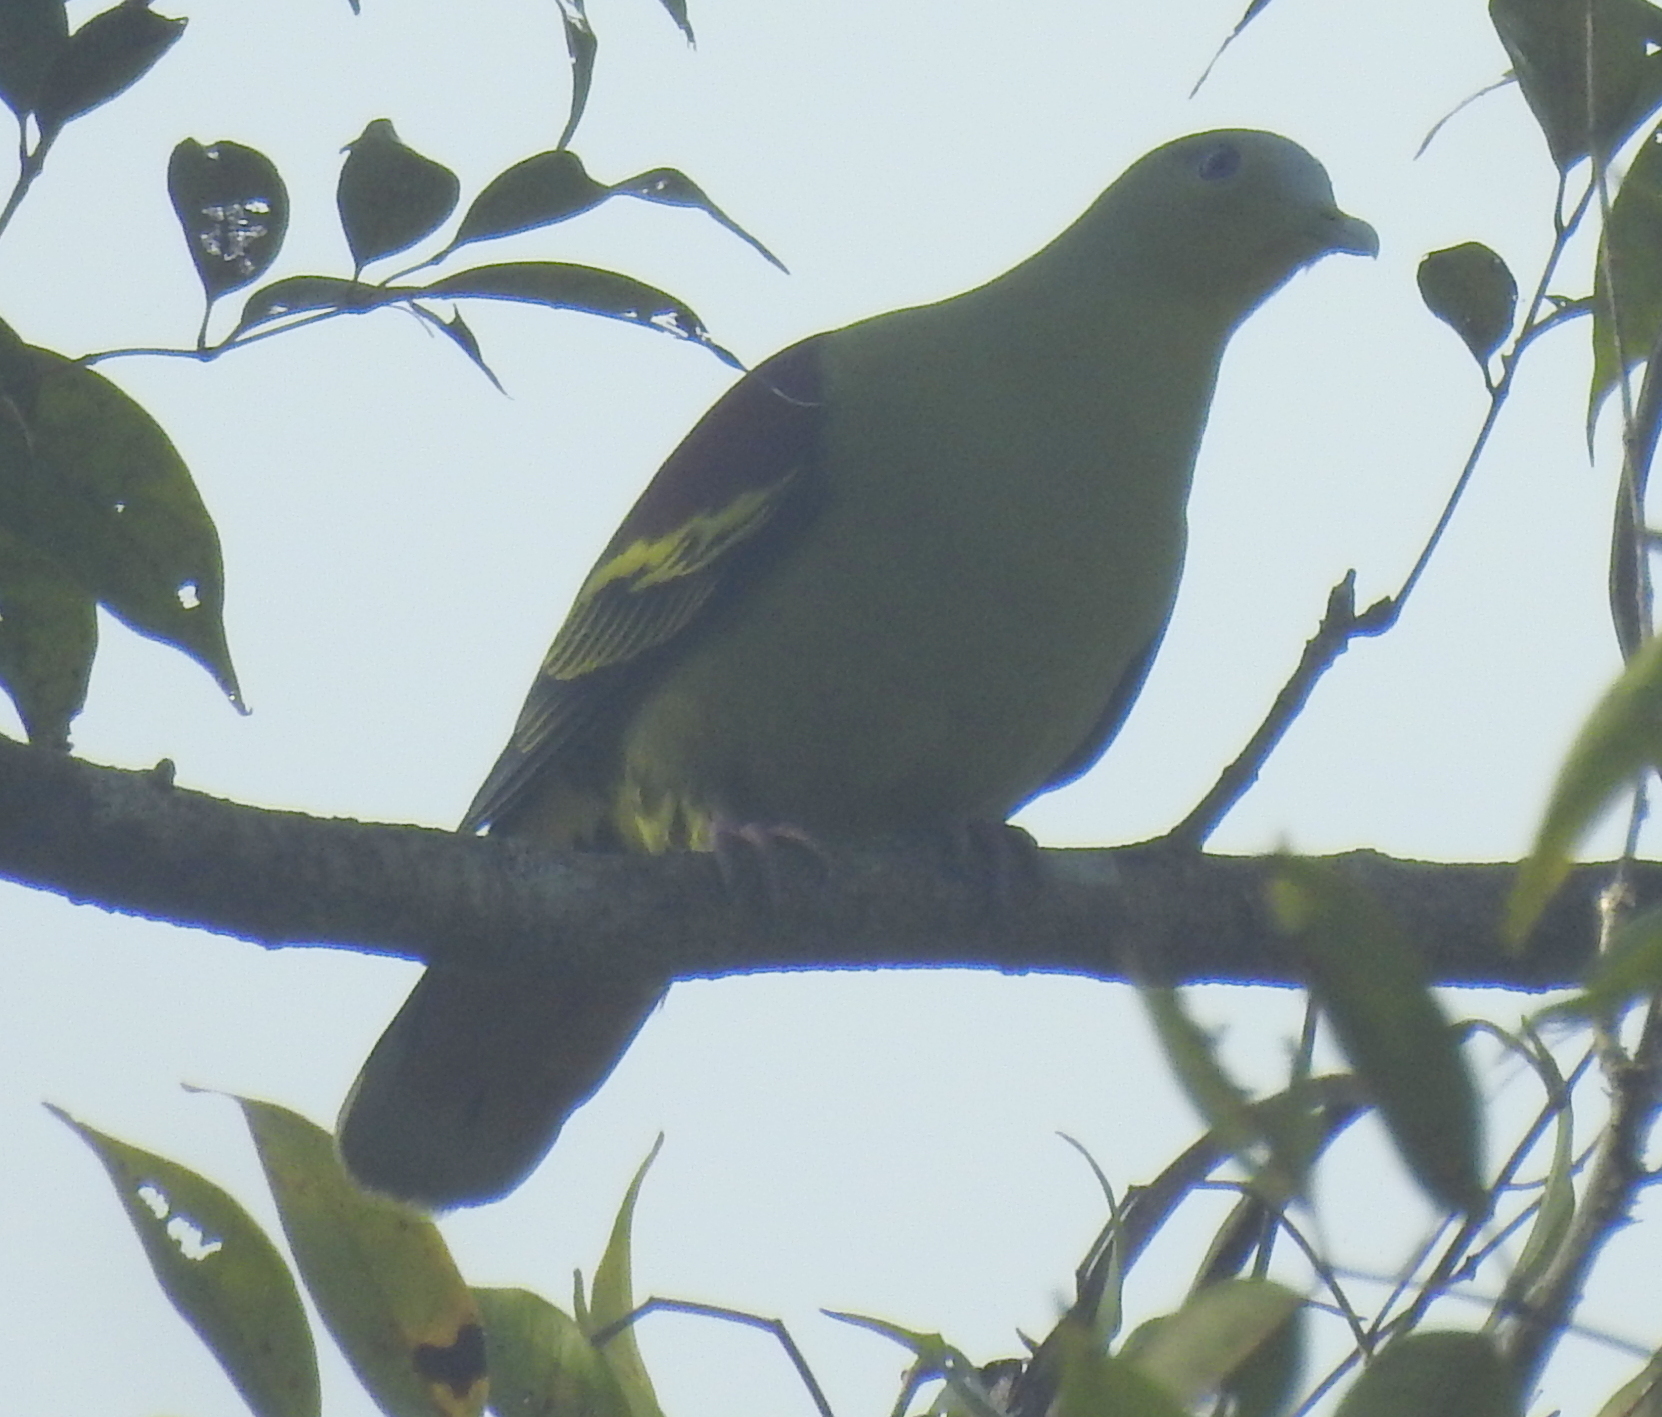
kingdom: Animalia
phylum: Chordata
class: Aves
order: Columbiformes
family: Columbidae
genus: Treron
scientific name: Treron affinis
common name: Grey-fronted green pigeon
